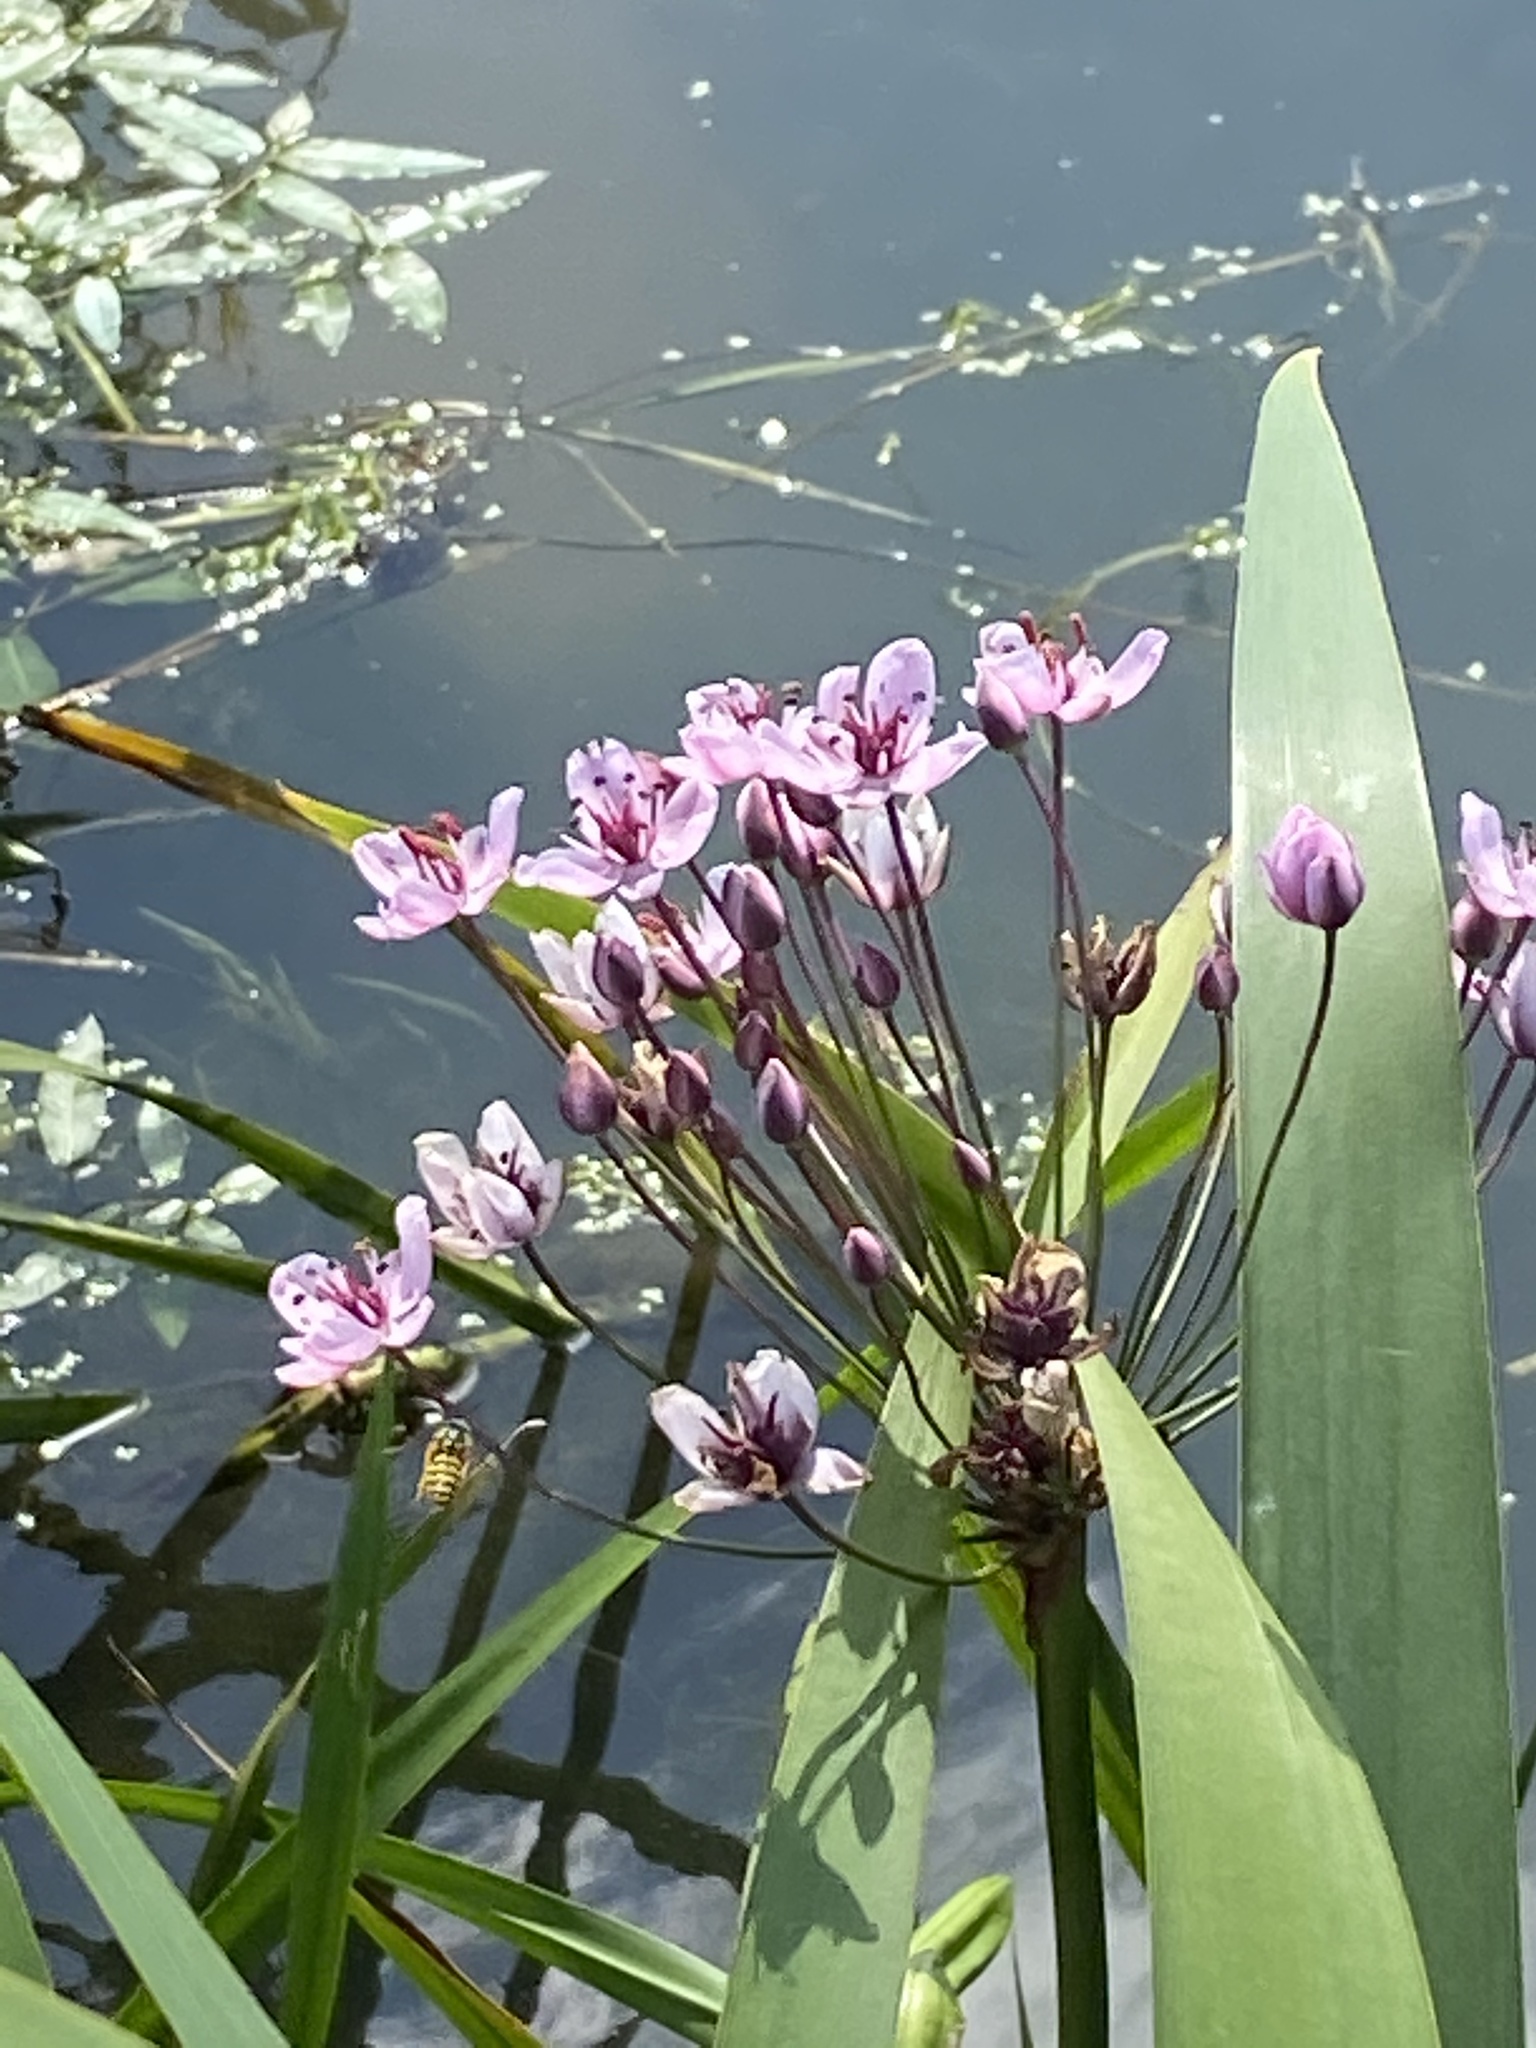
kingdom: Plantae
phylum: Tracheophyta
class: Liliopsida
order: Alismatales
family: Butomaceae
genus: Butomus
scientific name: Butomus umbellatus
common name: Flowering-rush
